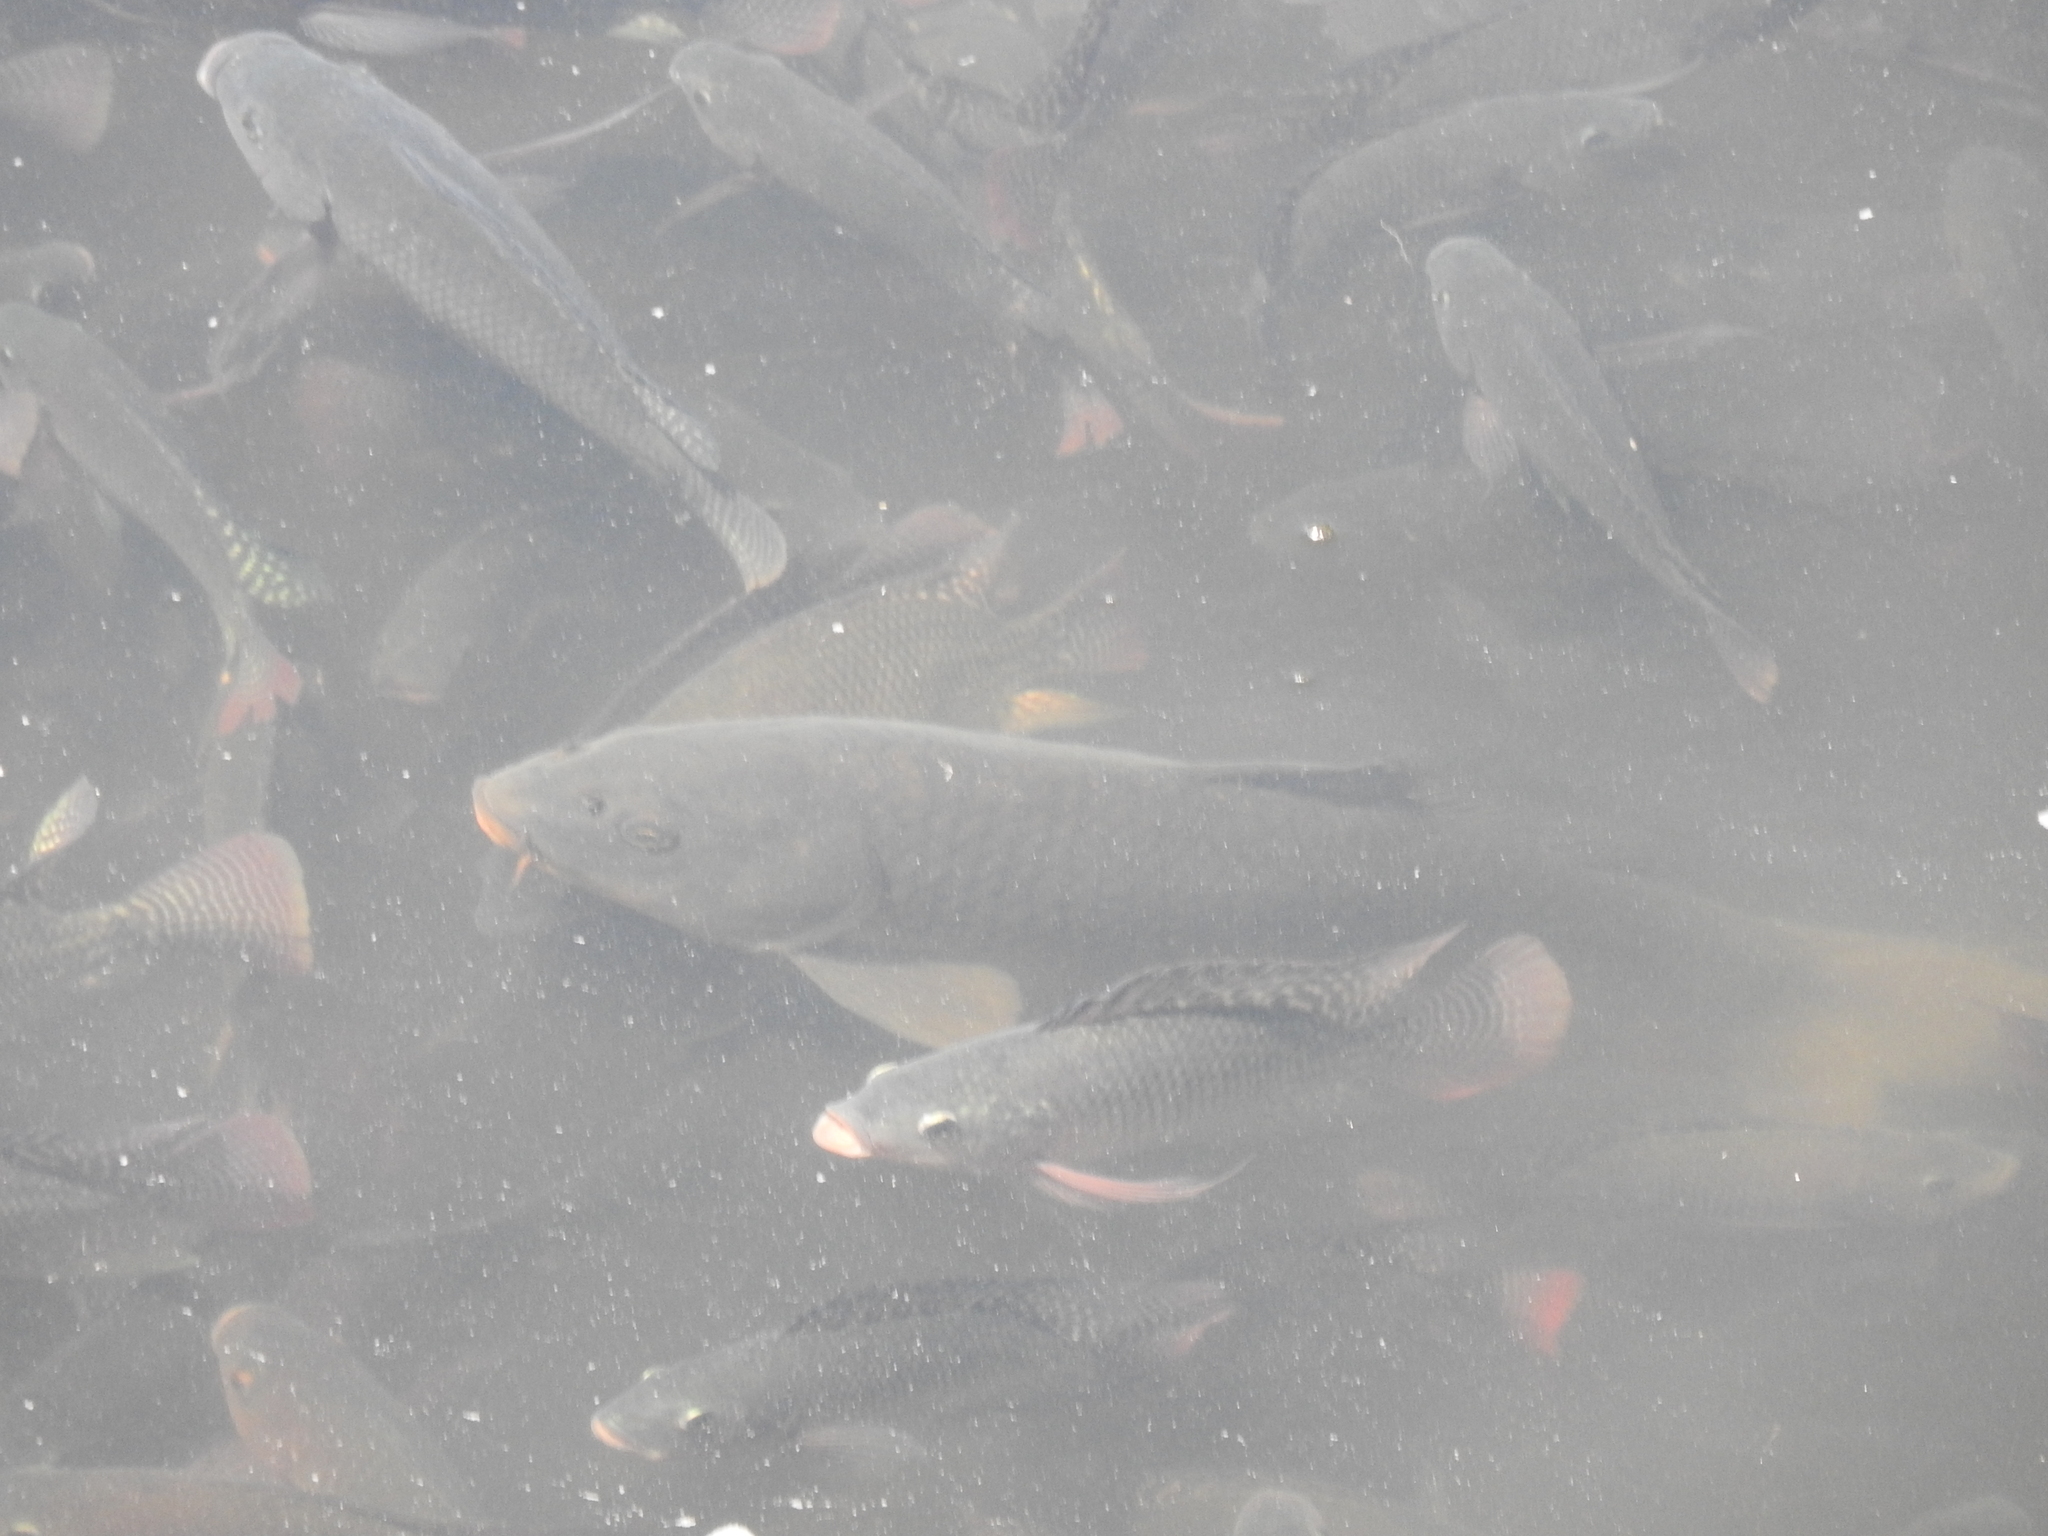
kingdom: Animalia
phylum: Chordata
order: Cypriniformes
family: Cyprinidae
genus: Cyprinus
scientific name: Cyprinus carpio
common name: Common carp
